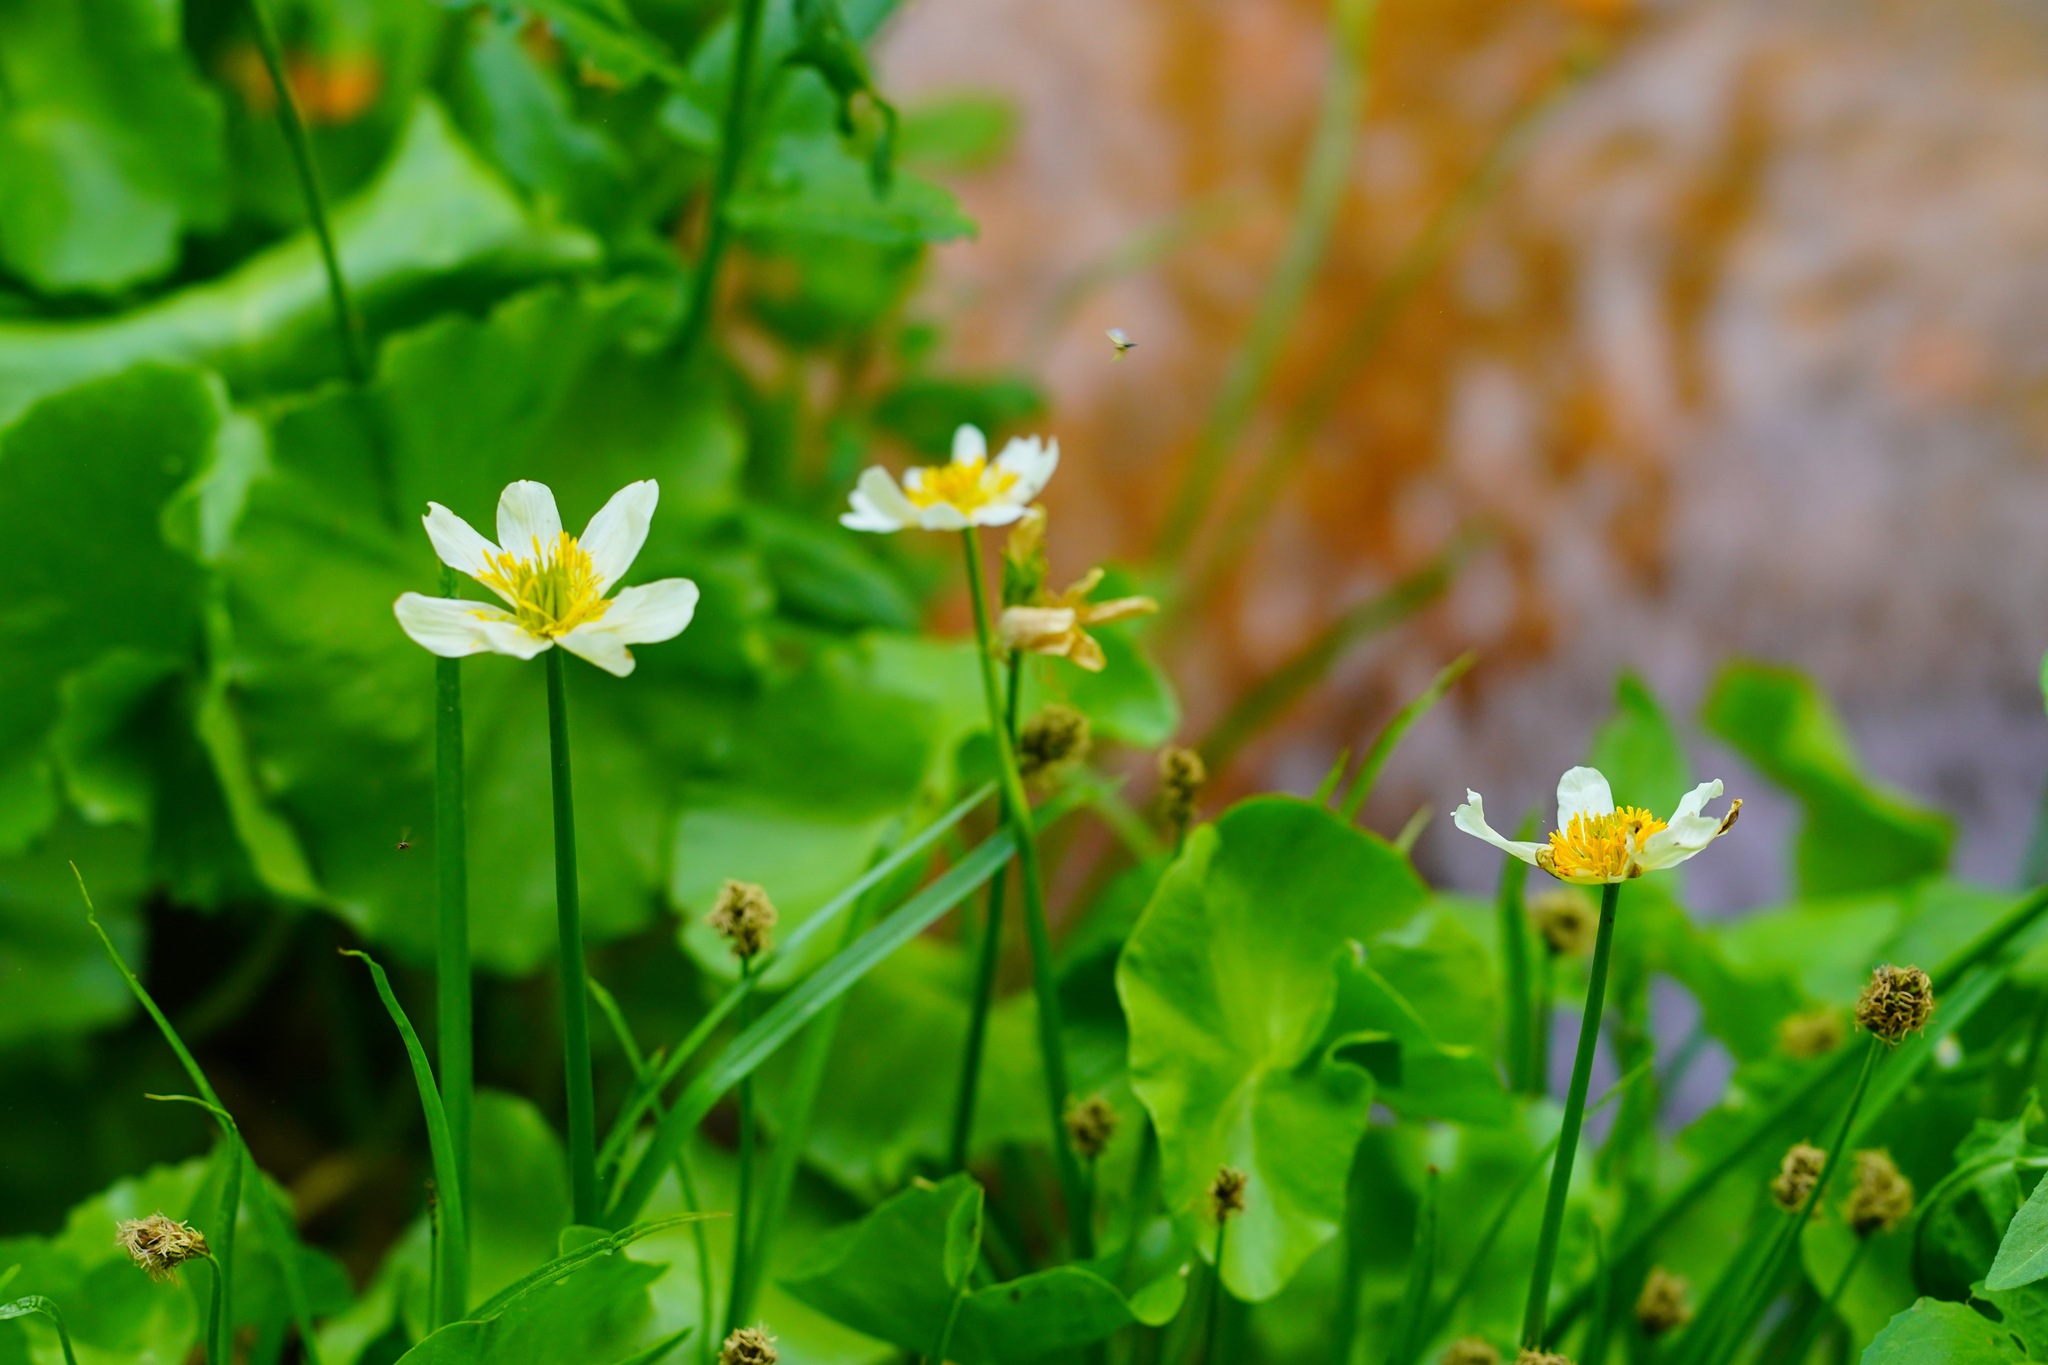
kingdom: Plantae
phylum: Tracheophyta
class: Magnoliopsida
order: Ranunculales
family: Ranunculaceae
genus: Caltha
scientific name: Caltha leptosepala
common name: Elkslip
